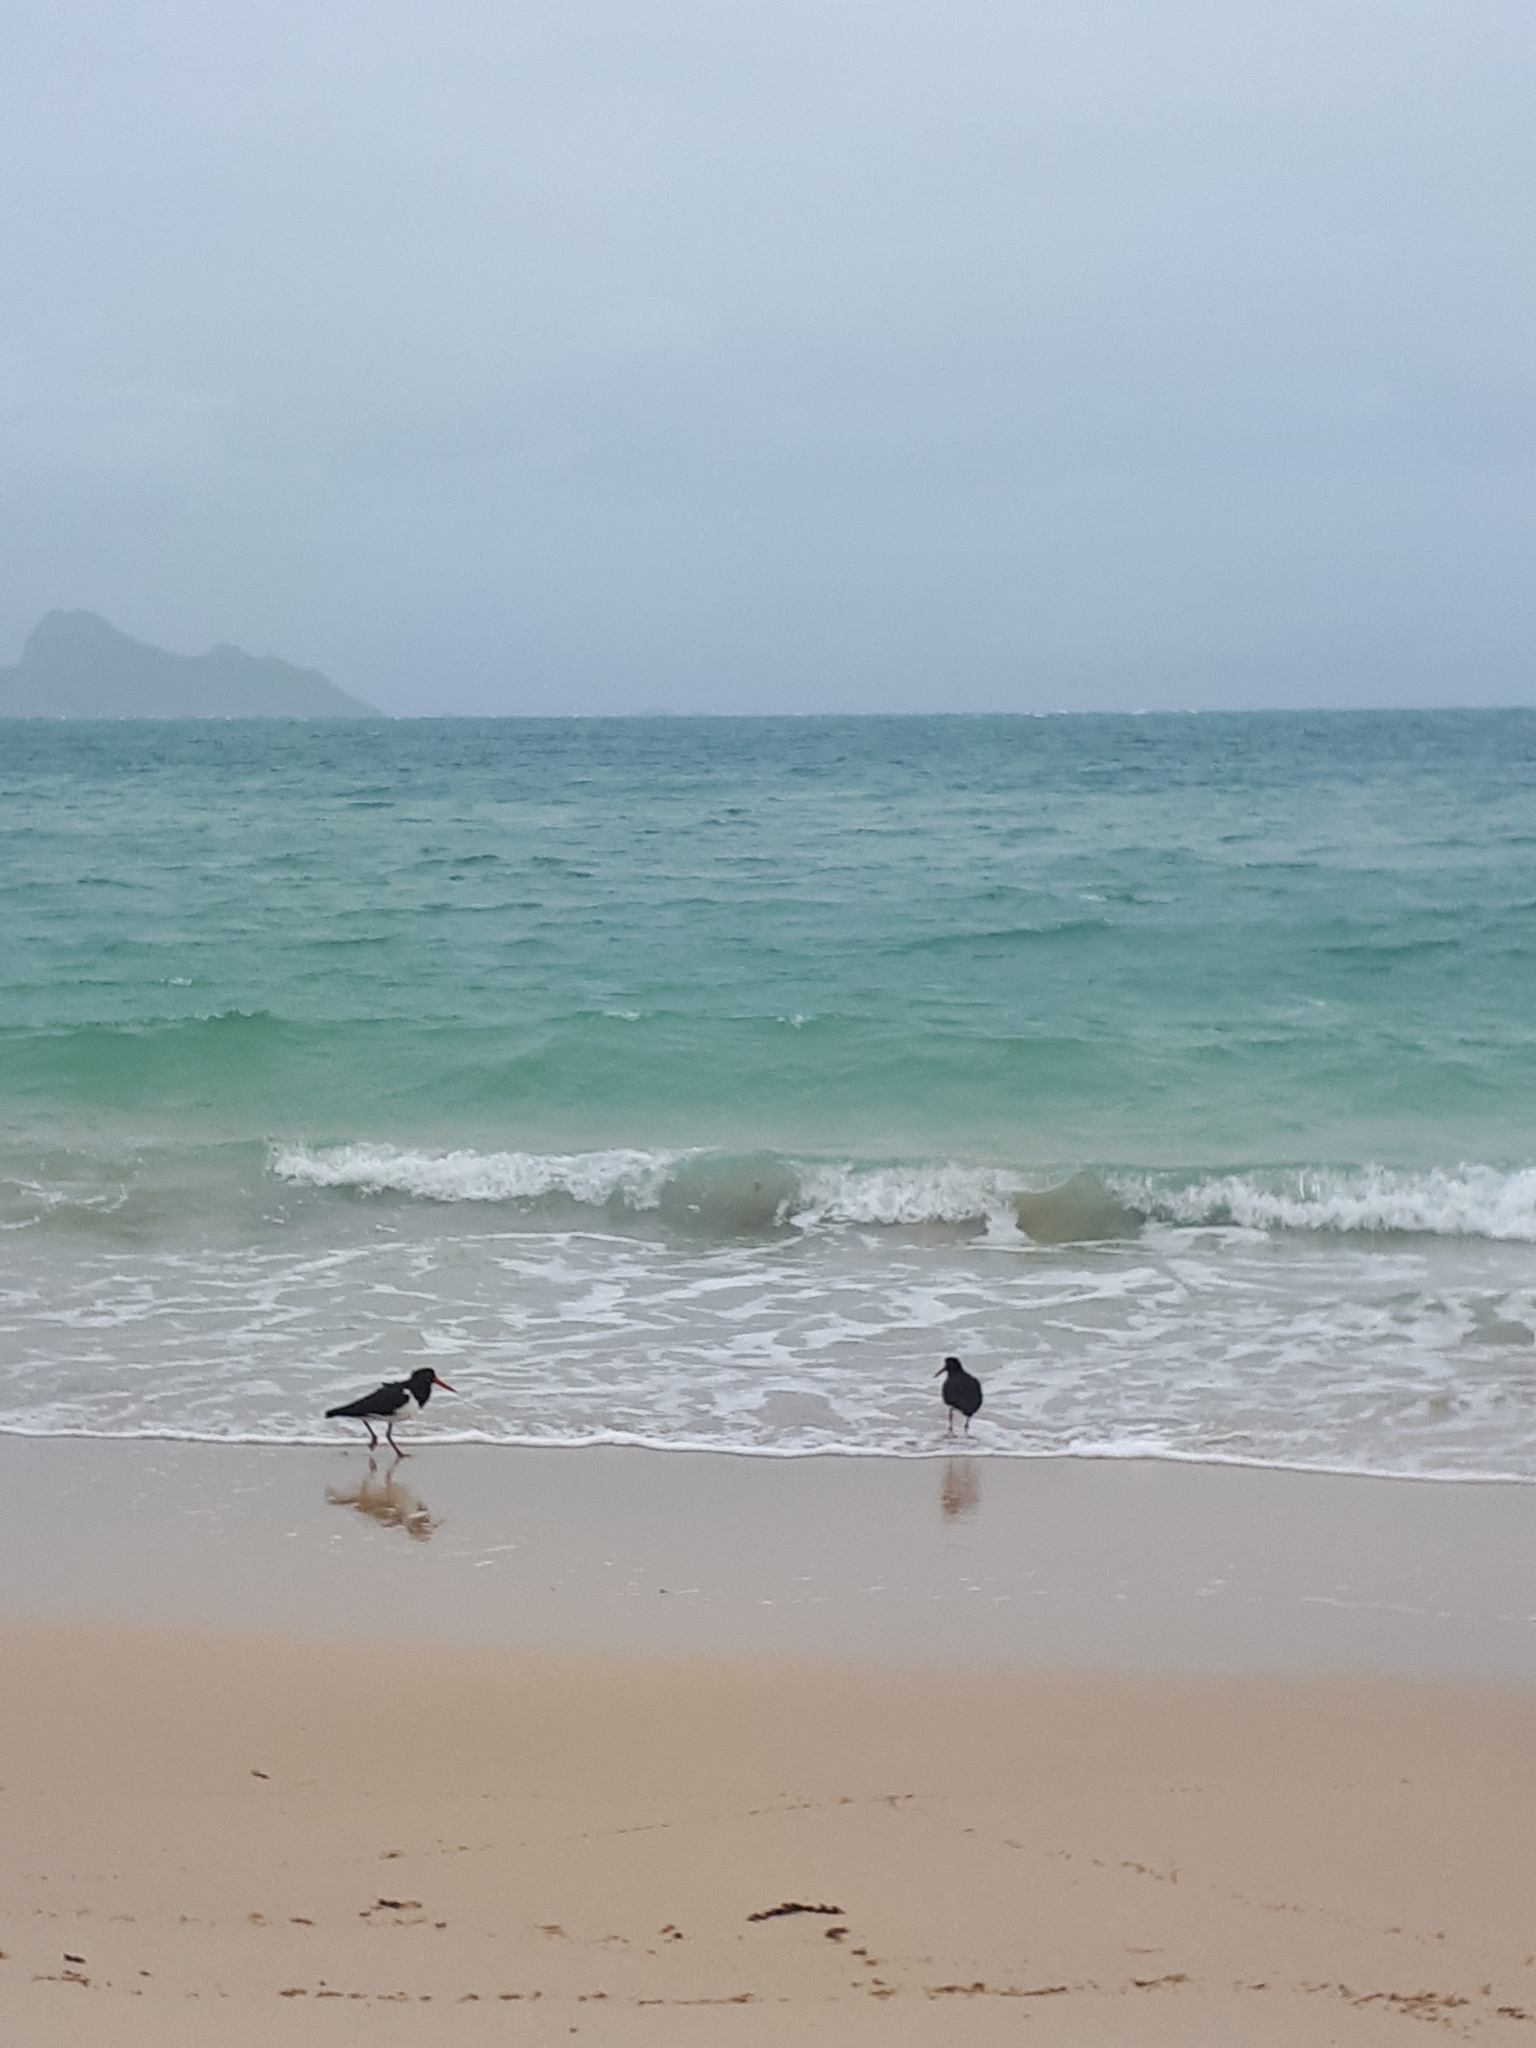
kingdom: Animalia
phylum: Chordata
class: Aves
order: Charadriiformes
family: Haematopodidae
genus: Haematopus
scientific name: Haematopus longirostris
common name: Pied oystercatcher
